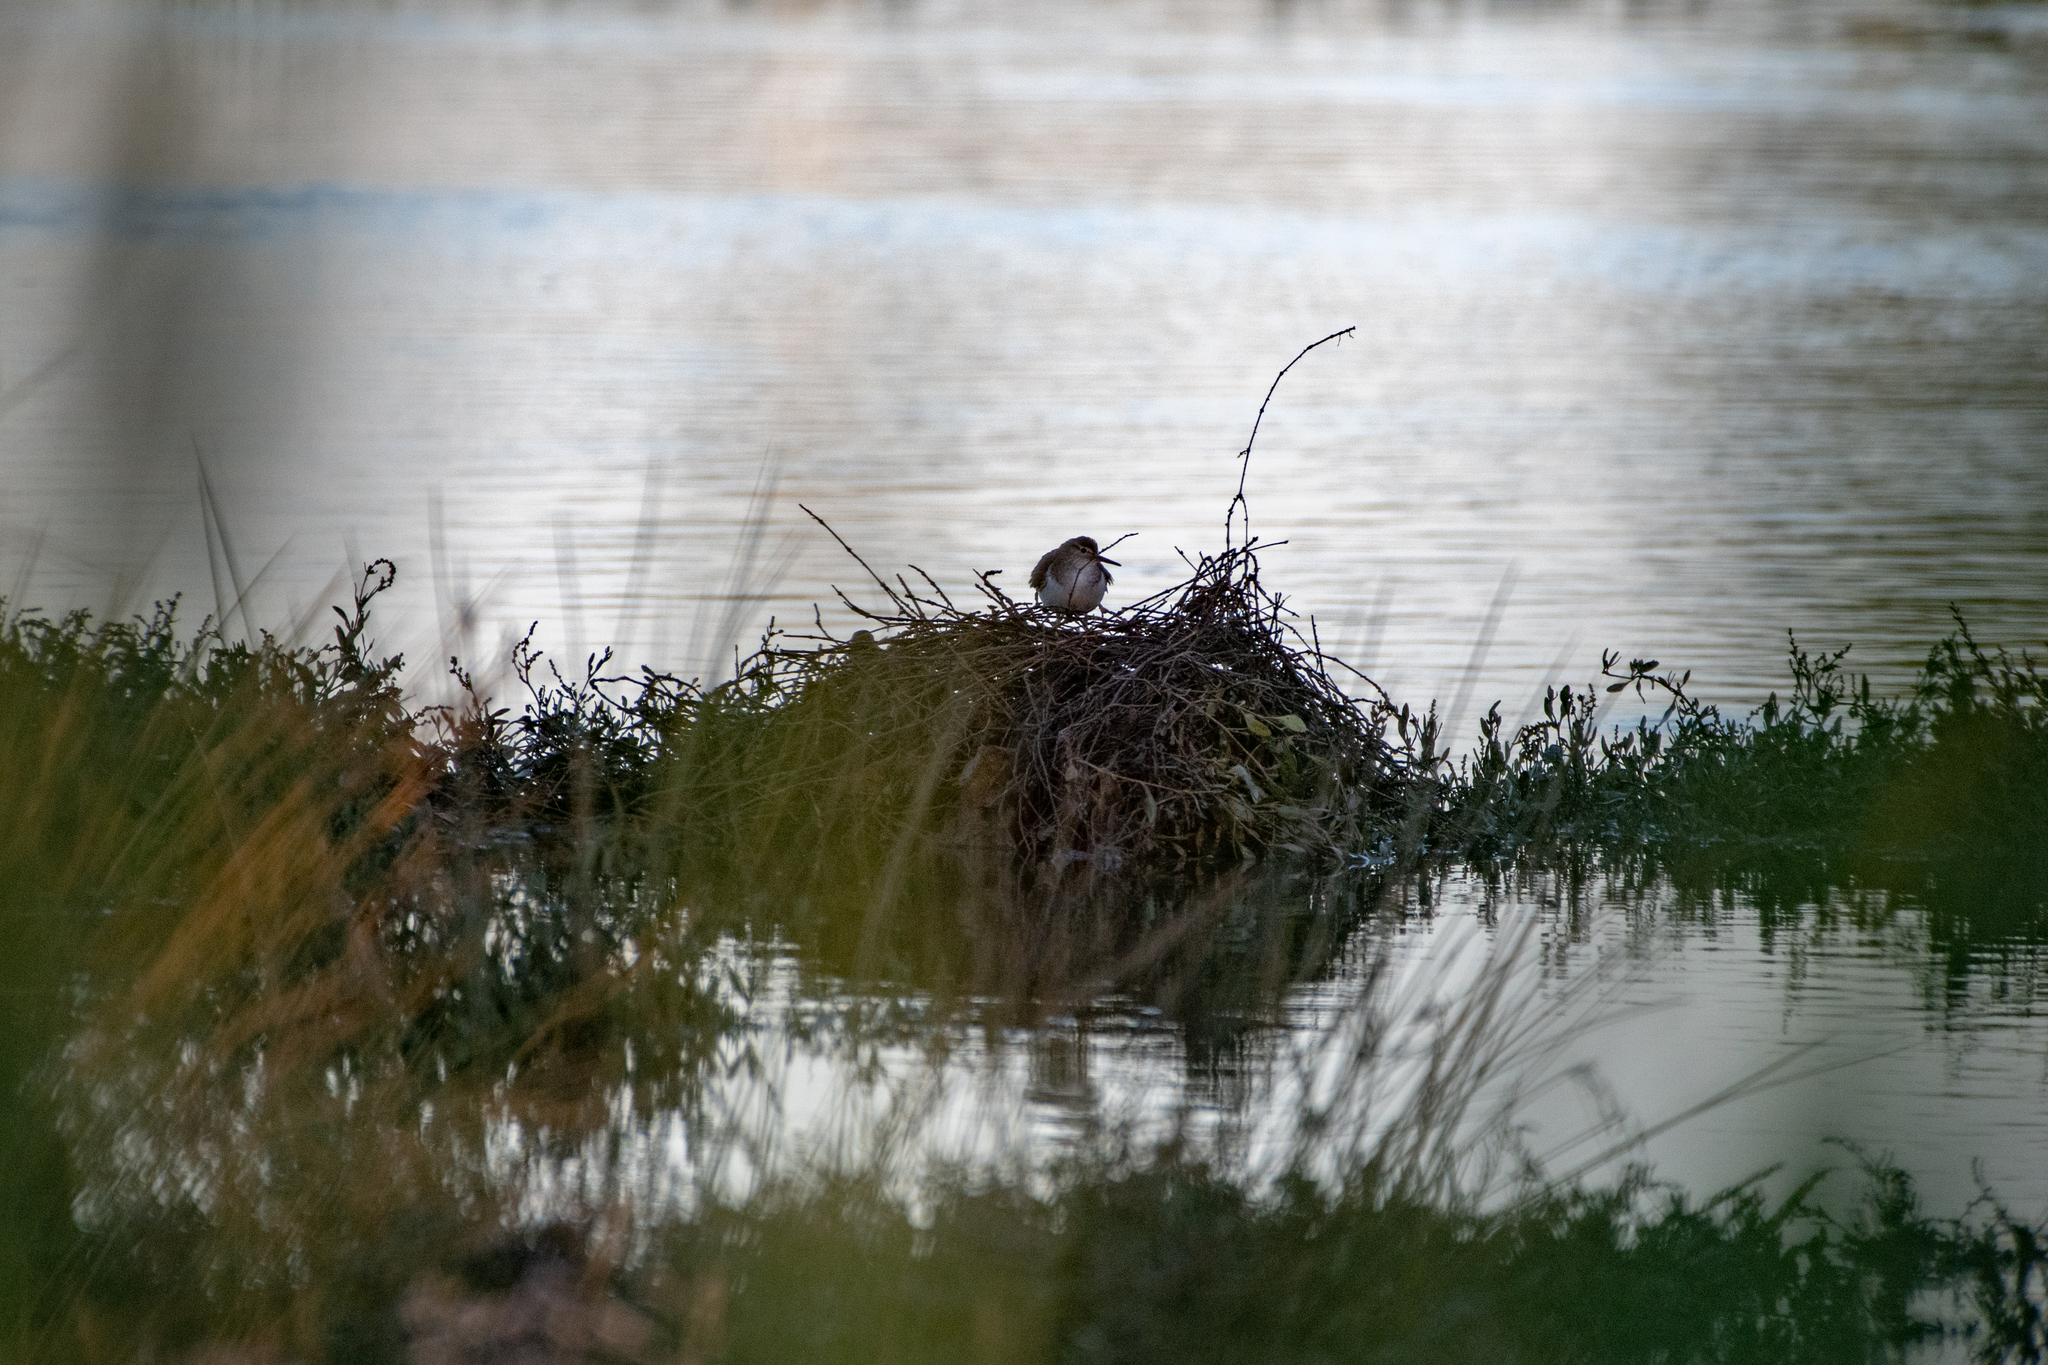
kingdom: Animalia
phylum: Chordata
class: Aves
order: Charadriiformes
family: Scolopacidae
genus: Actitis
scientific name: Actitis hypoleucos
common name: Common sandpiper
